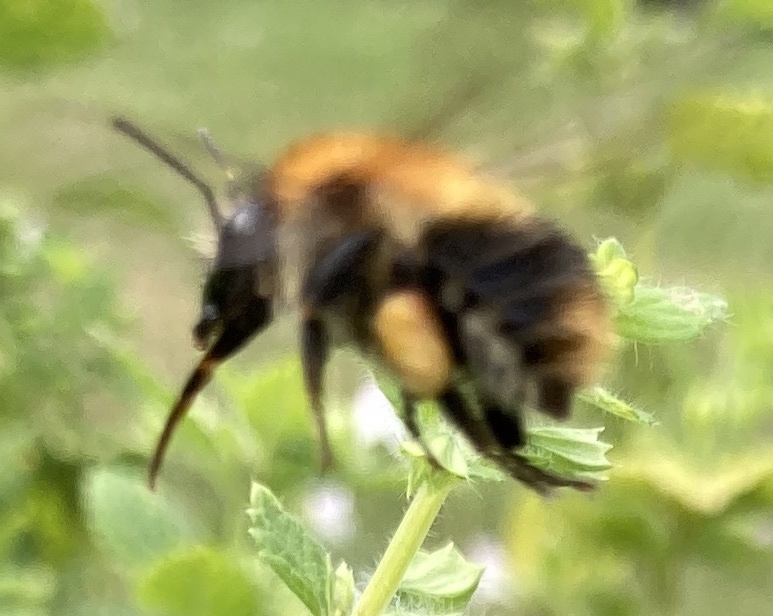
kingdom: Animalia
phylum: Arthropoda
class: Insecta
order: Hymenoptera
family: Apidae
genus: Bombus
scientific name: Bombus pascuorum
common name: Common carder bee
